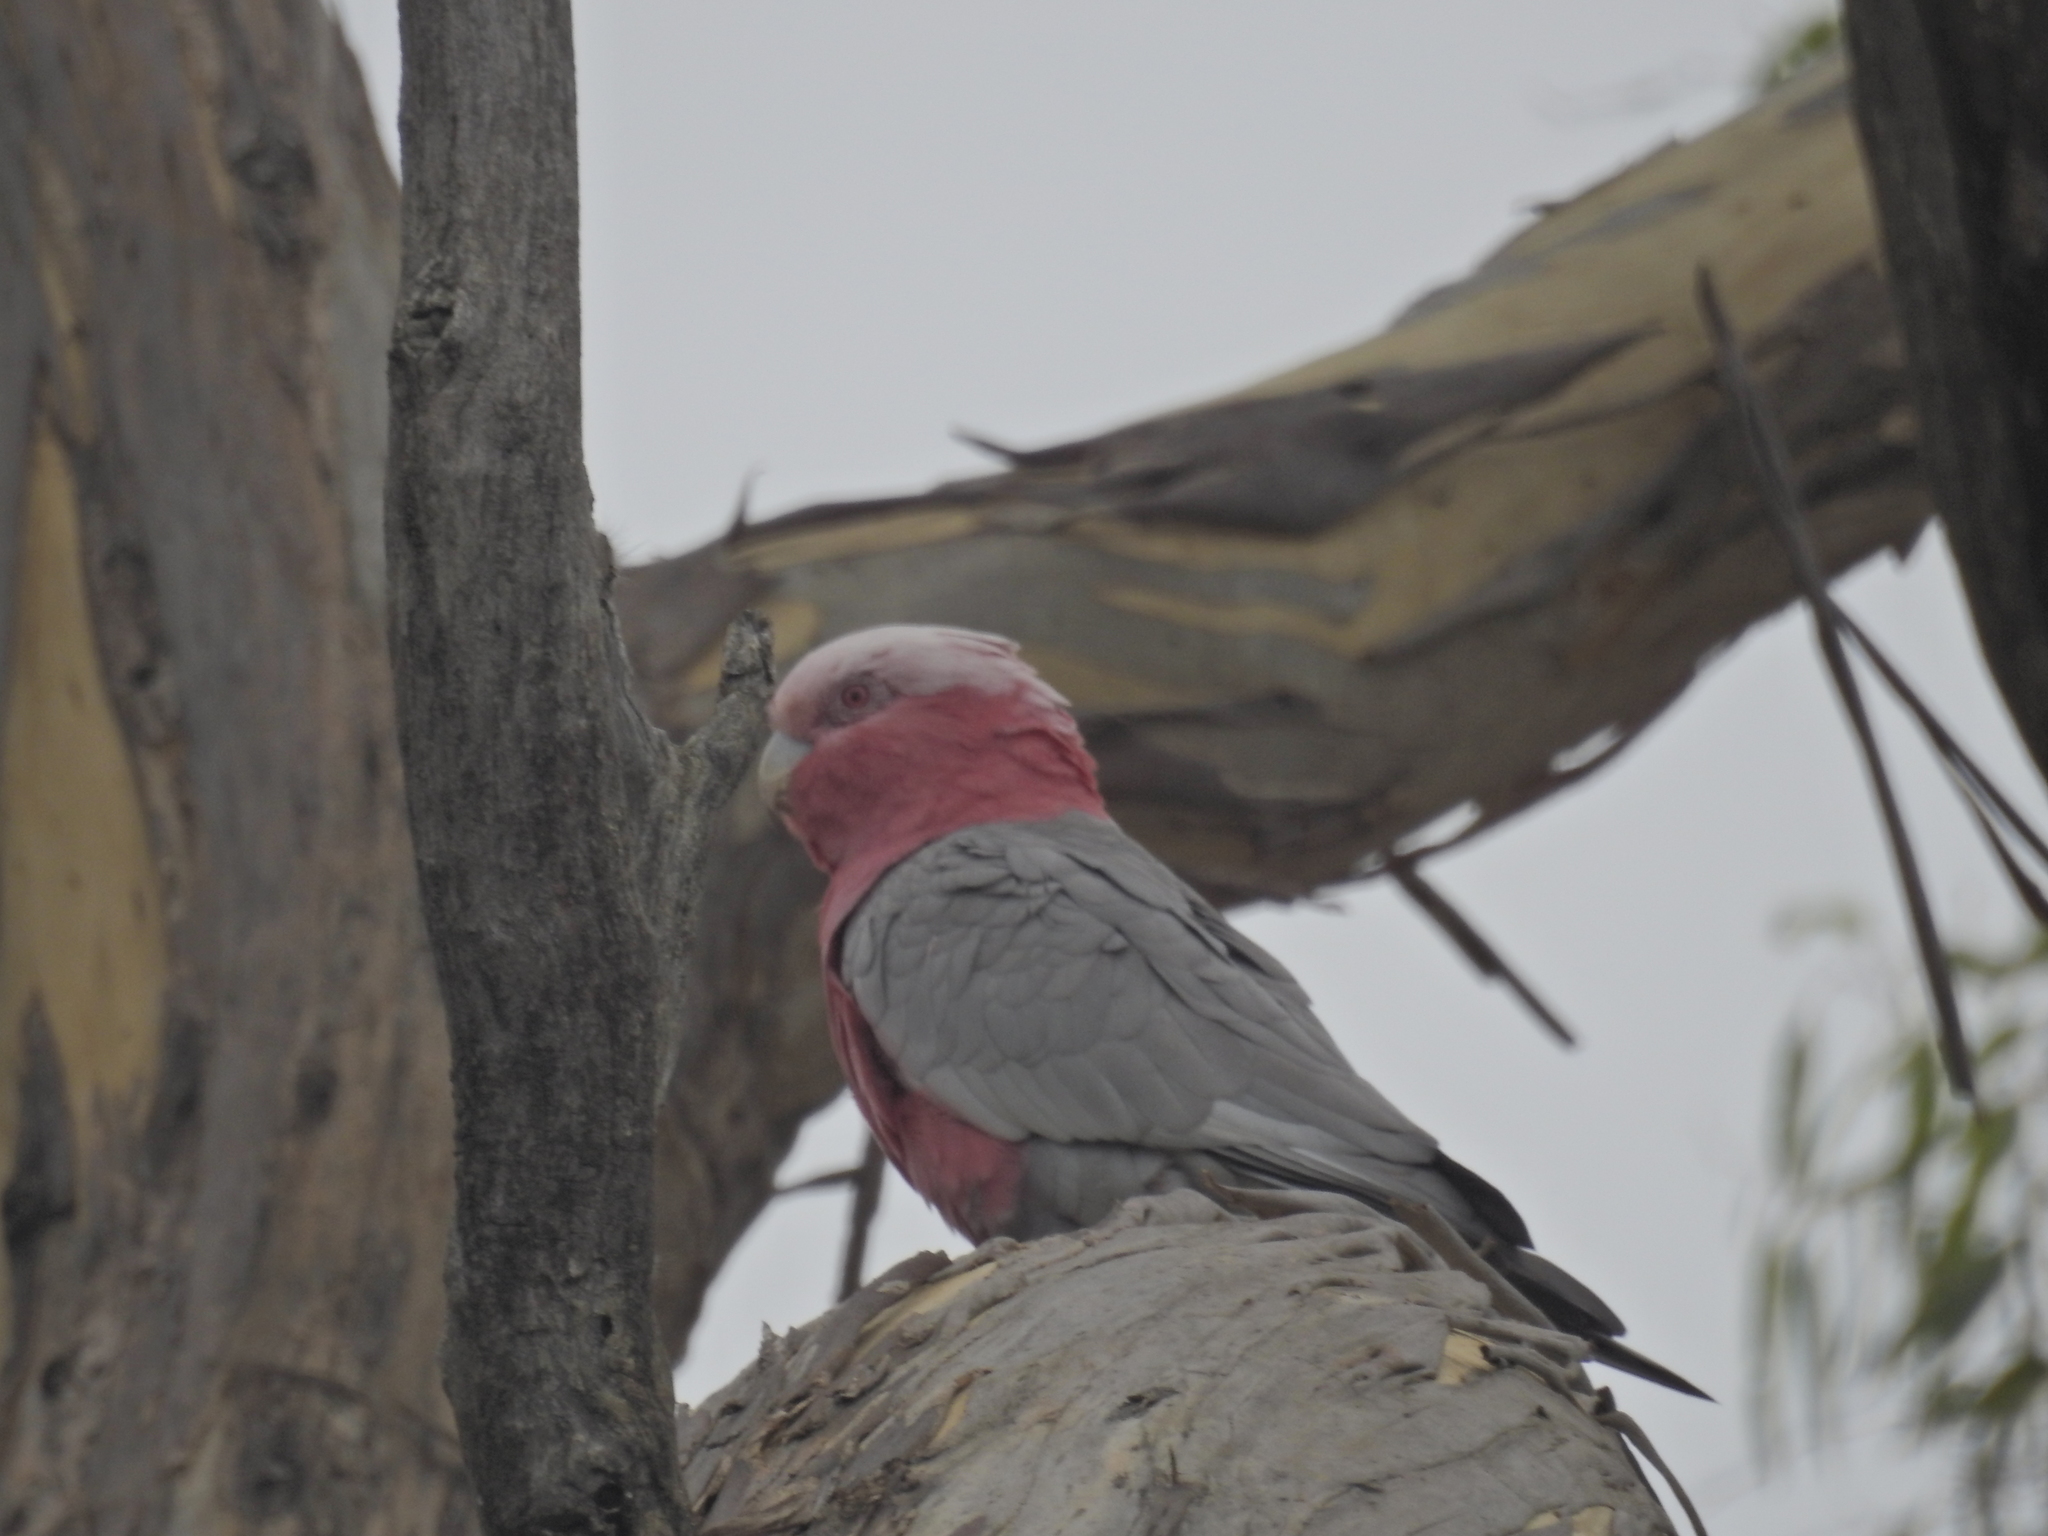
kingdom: Animalia
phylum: Chordata
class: Aves
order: Psittaciformes
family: Psittacidae
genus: Eolophus
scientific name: Eolophus roseicapilla
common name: Galah
